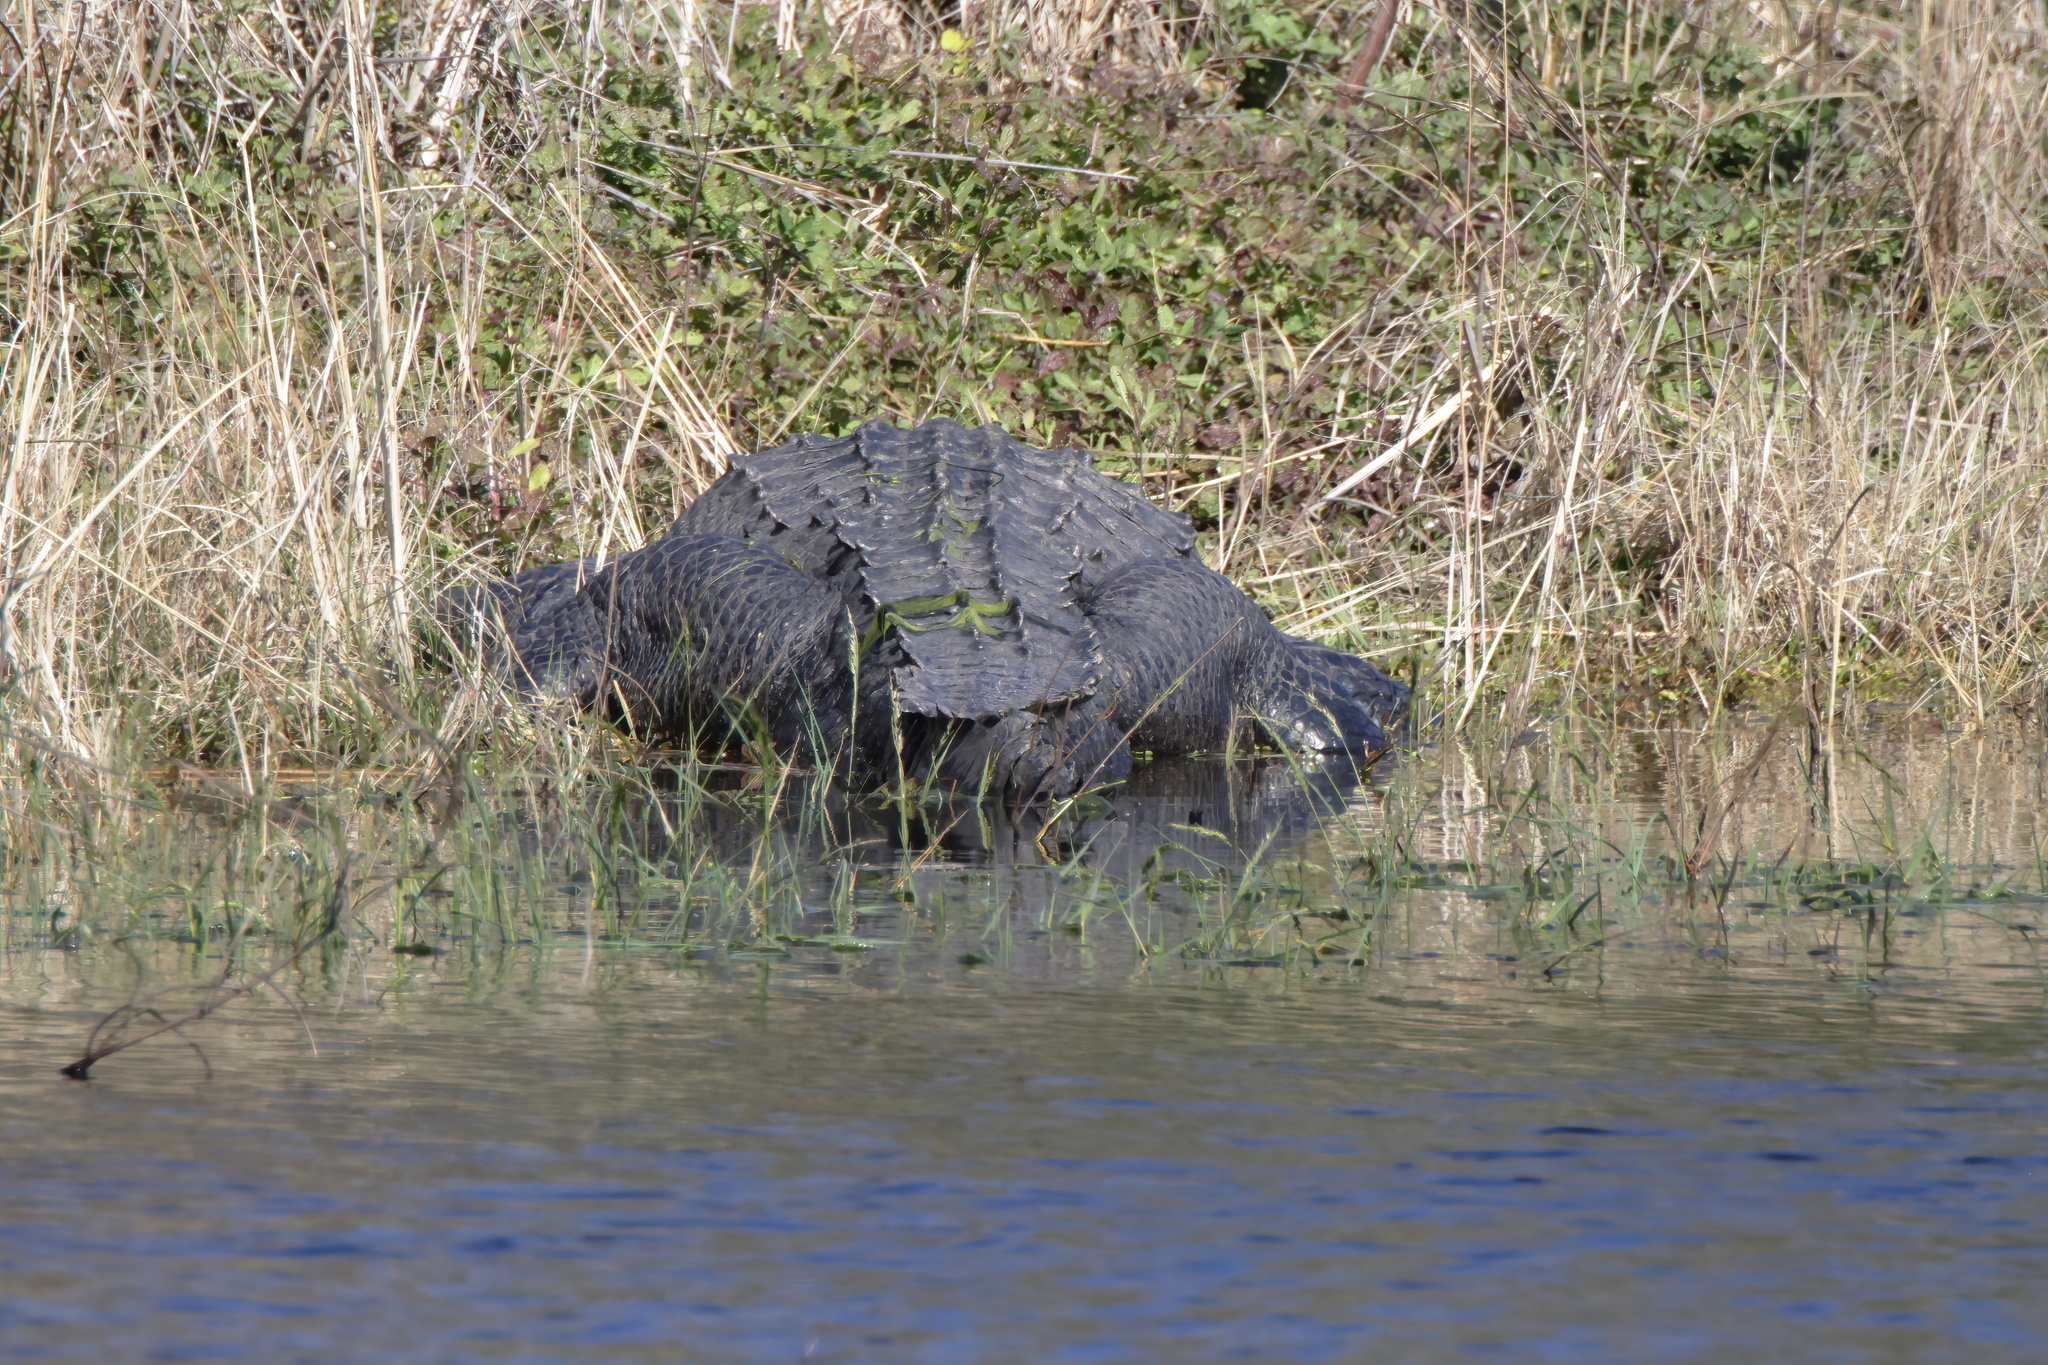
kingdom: Animalia
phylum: Chordata
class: Crocodylia
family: Alligatoridae
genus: Alligator
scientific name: Alligator mississippiensis
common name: American alligator
